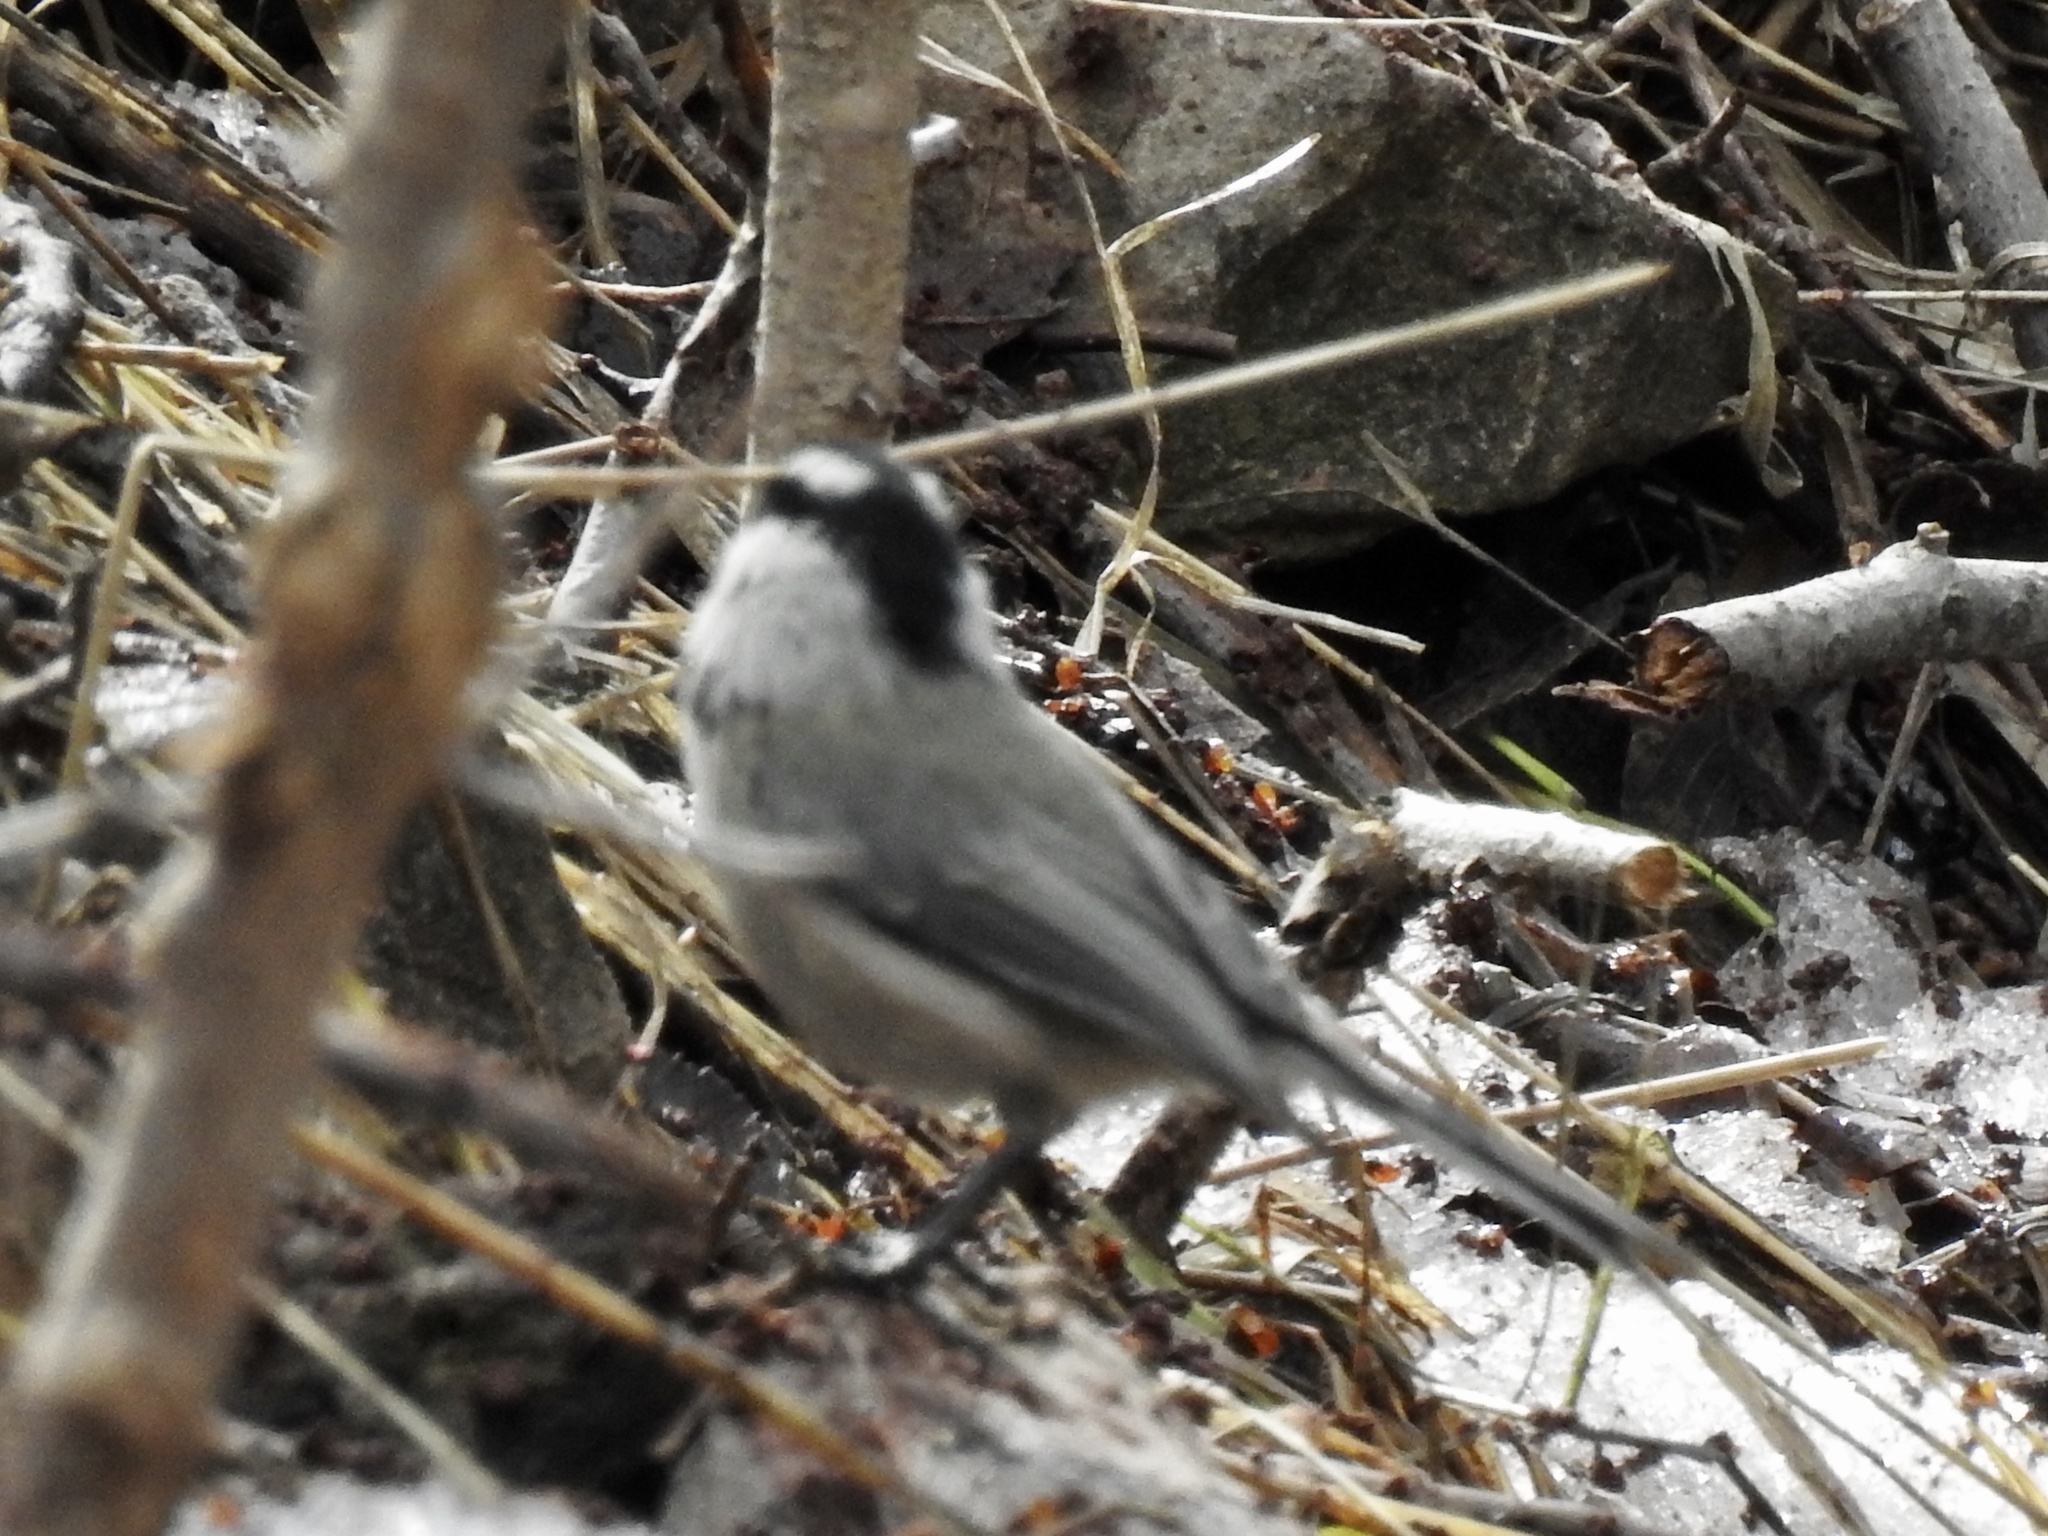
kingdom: Animalia
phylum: Chordata
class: Aves
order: Passeriformes
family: Paridae
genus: Poecile
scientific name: Poecile gambeli
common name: Mountain chickadee
